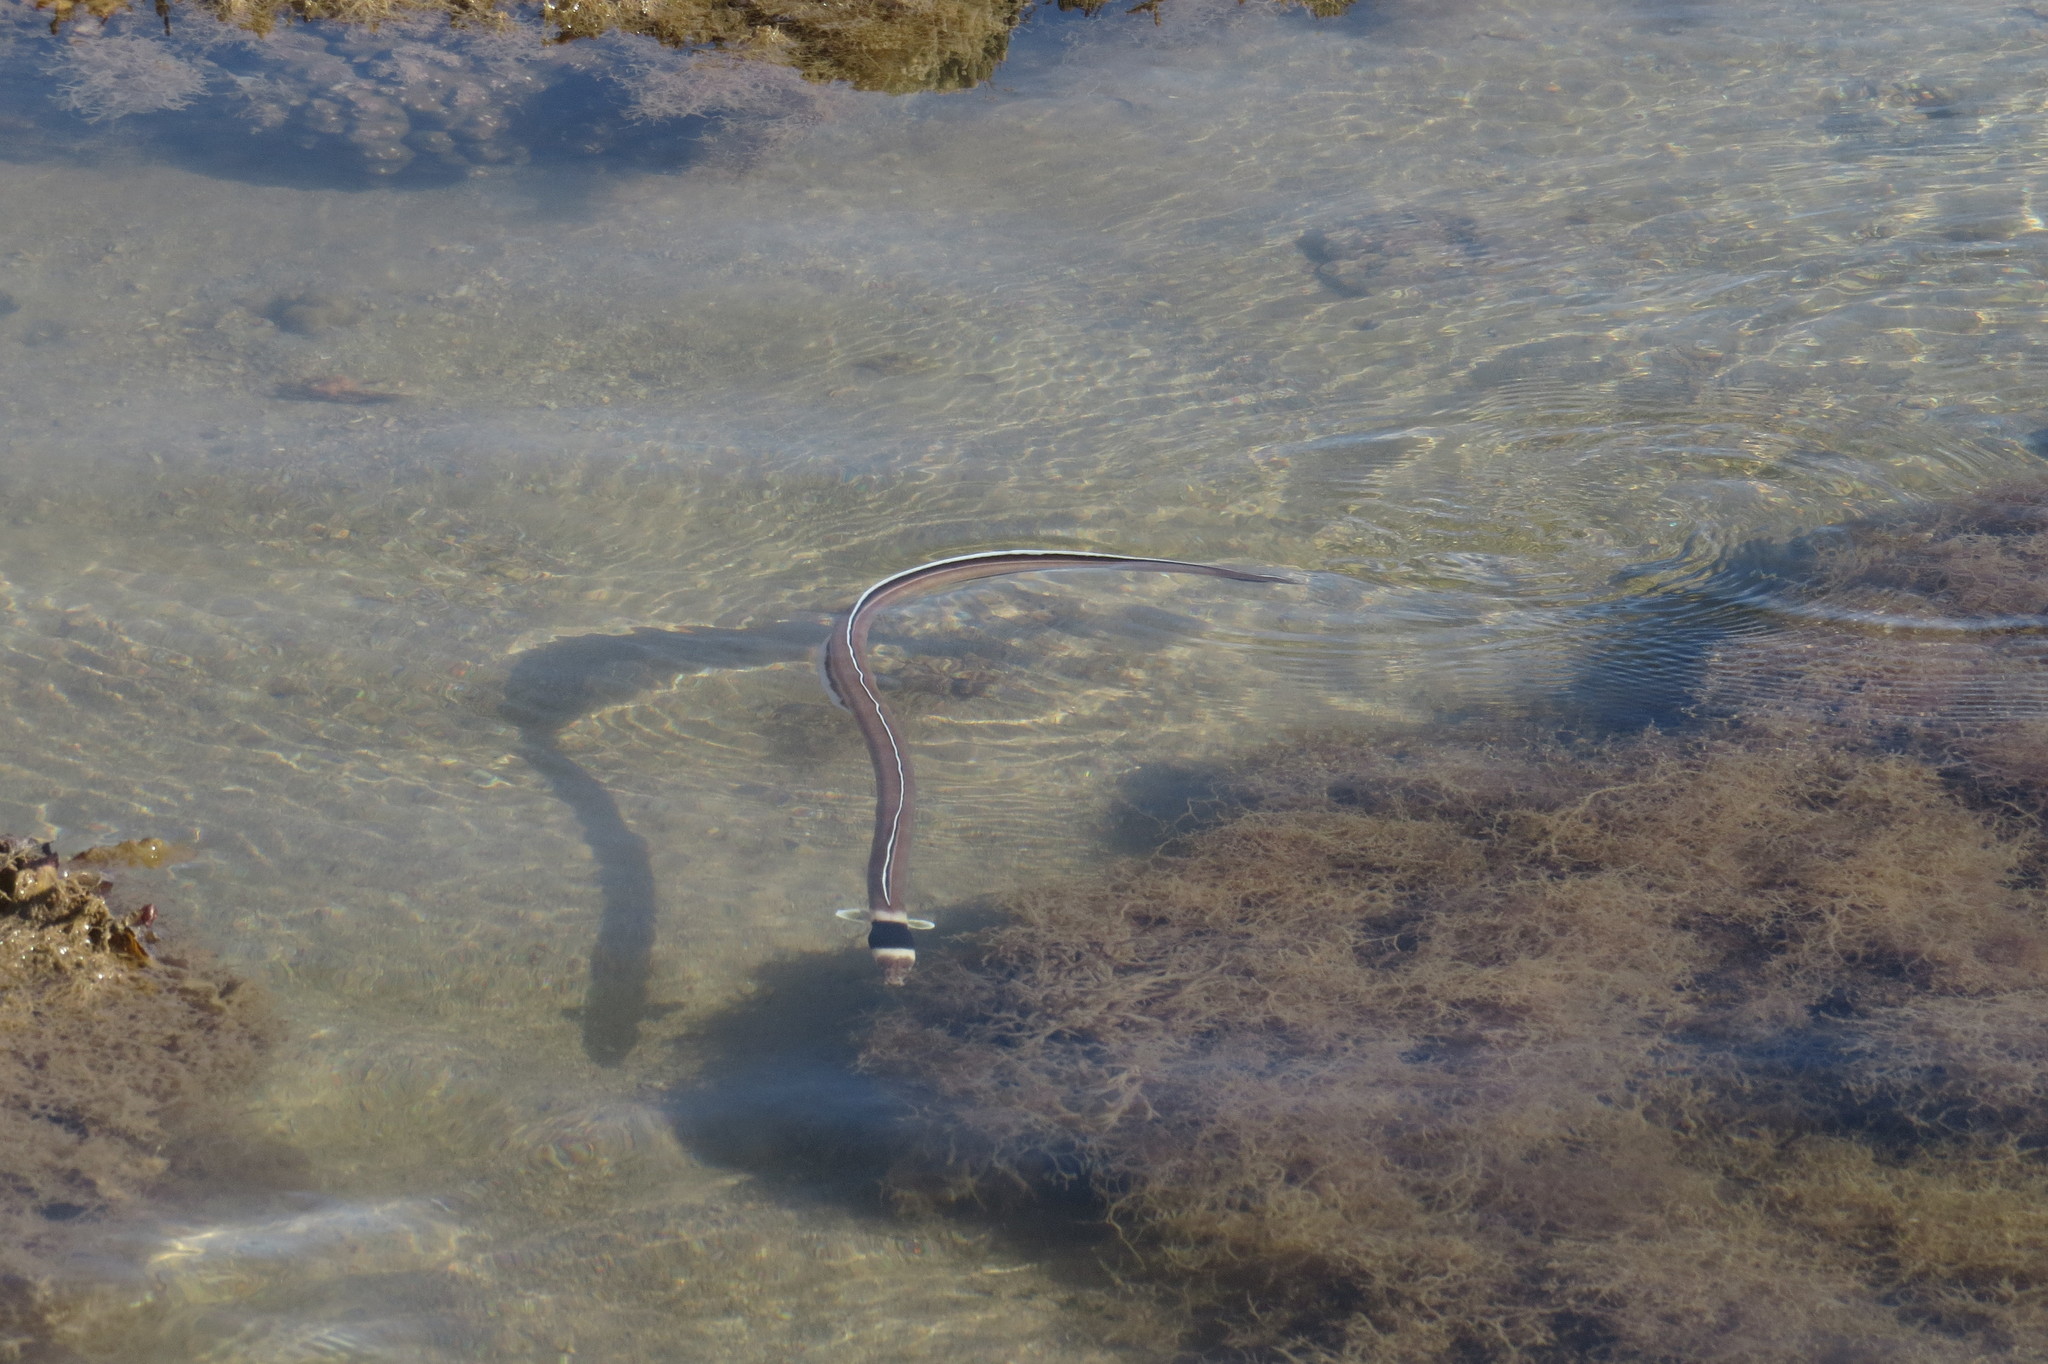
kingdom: Animalia
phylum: Chordata
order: Anguilliformes
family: Ophichthidae
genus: Ophichthus
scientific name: Ophichthus cephalozona
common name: Dark-shouldered snake eel
